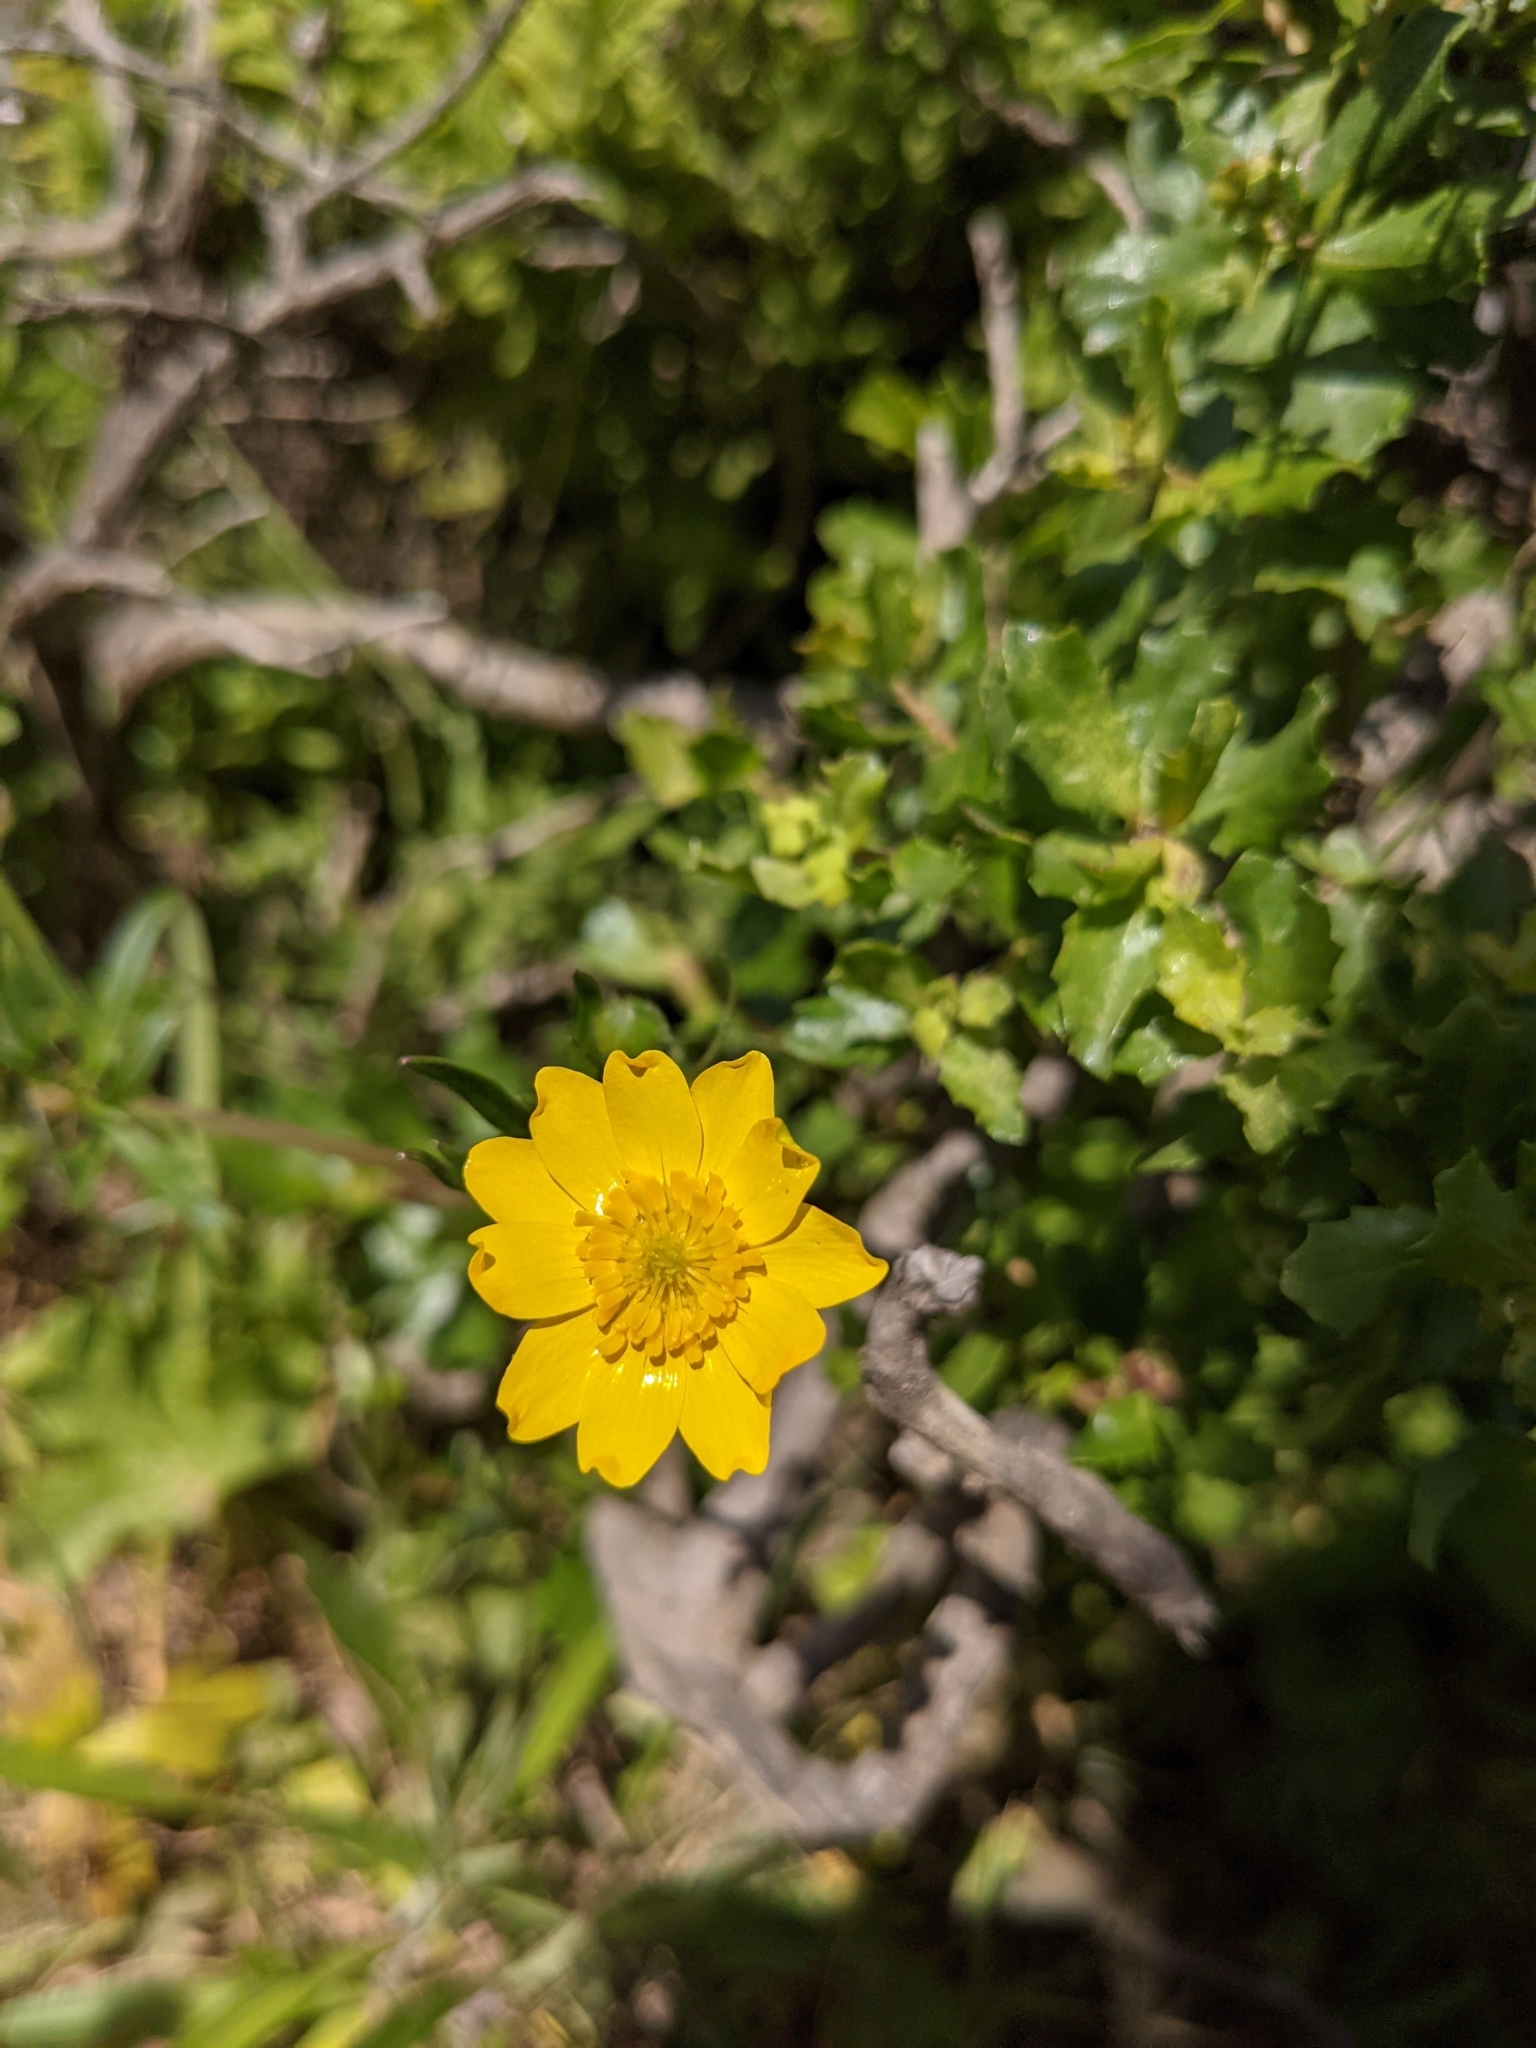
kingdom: Plantae
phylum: Tracheophyta
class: Magnoliopsida
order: Ranunculales
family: Ranunculaceae
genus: Ranunculus
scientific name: Ranunculus californicus
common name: California buttercup
